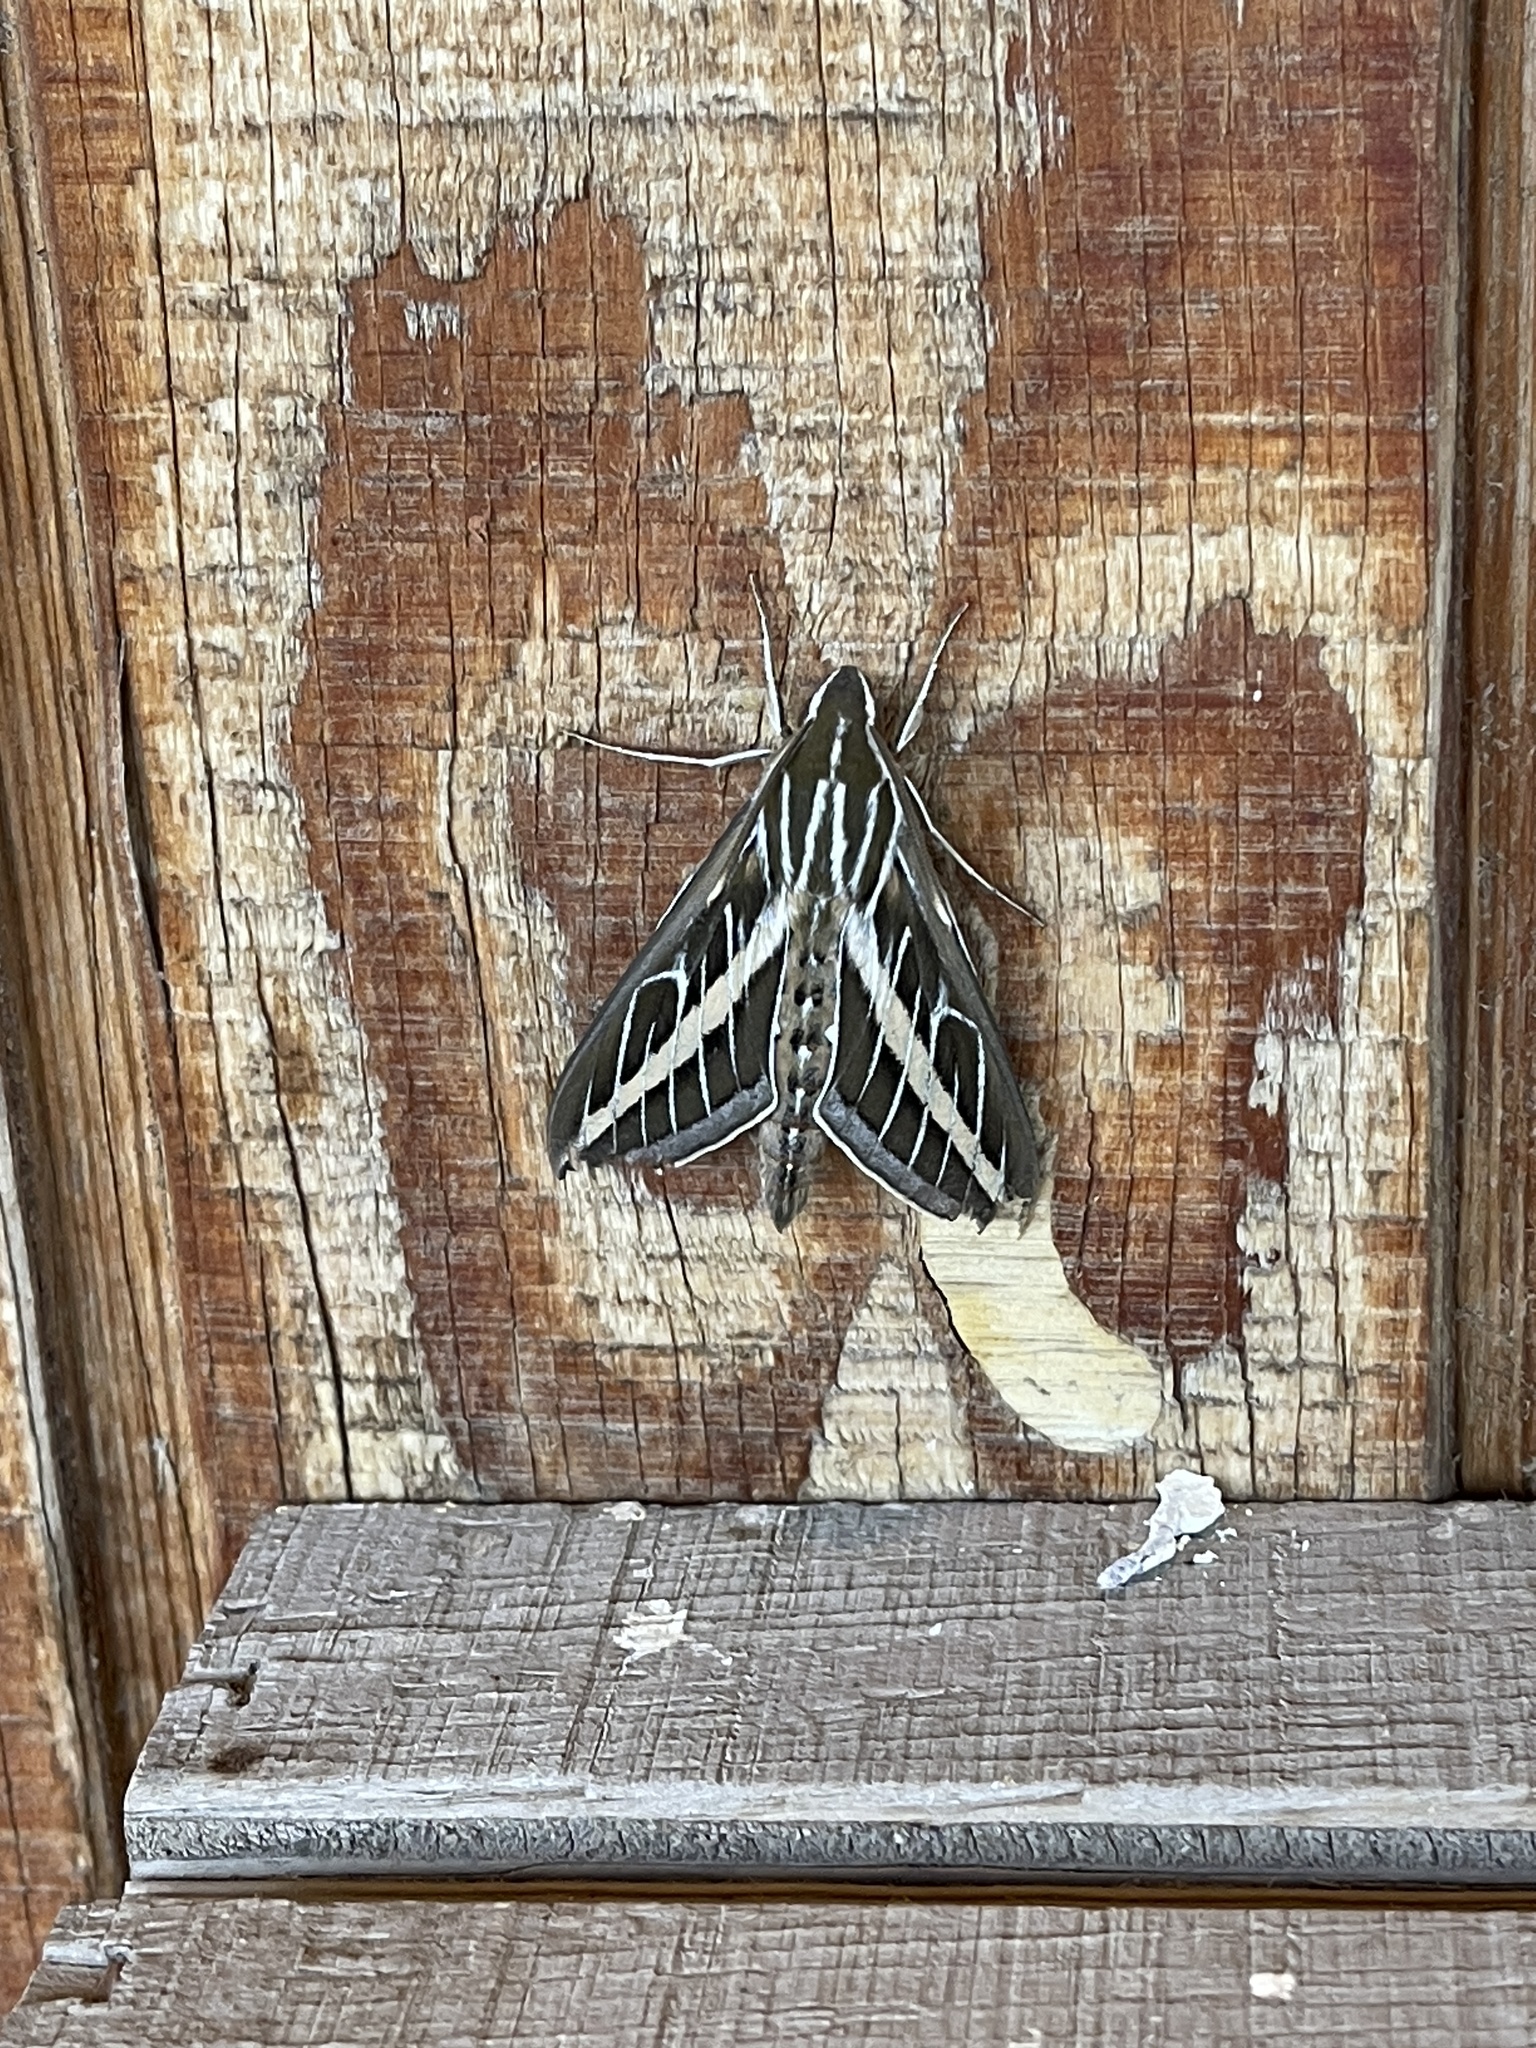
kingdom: Animalia
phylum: Arthropoda
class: Insecta
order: Lepidoptera
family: Sphingidae
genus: Hyles
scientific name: Hyles lineata
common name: White-lined sphinx
